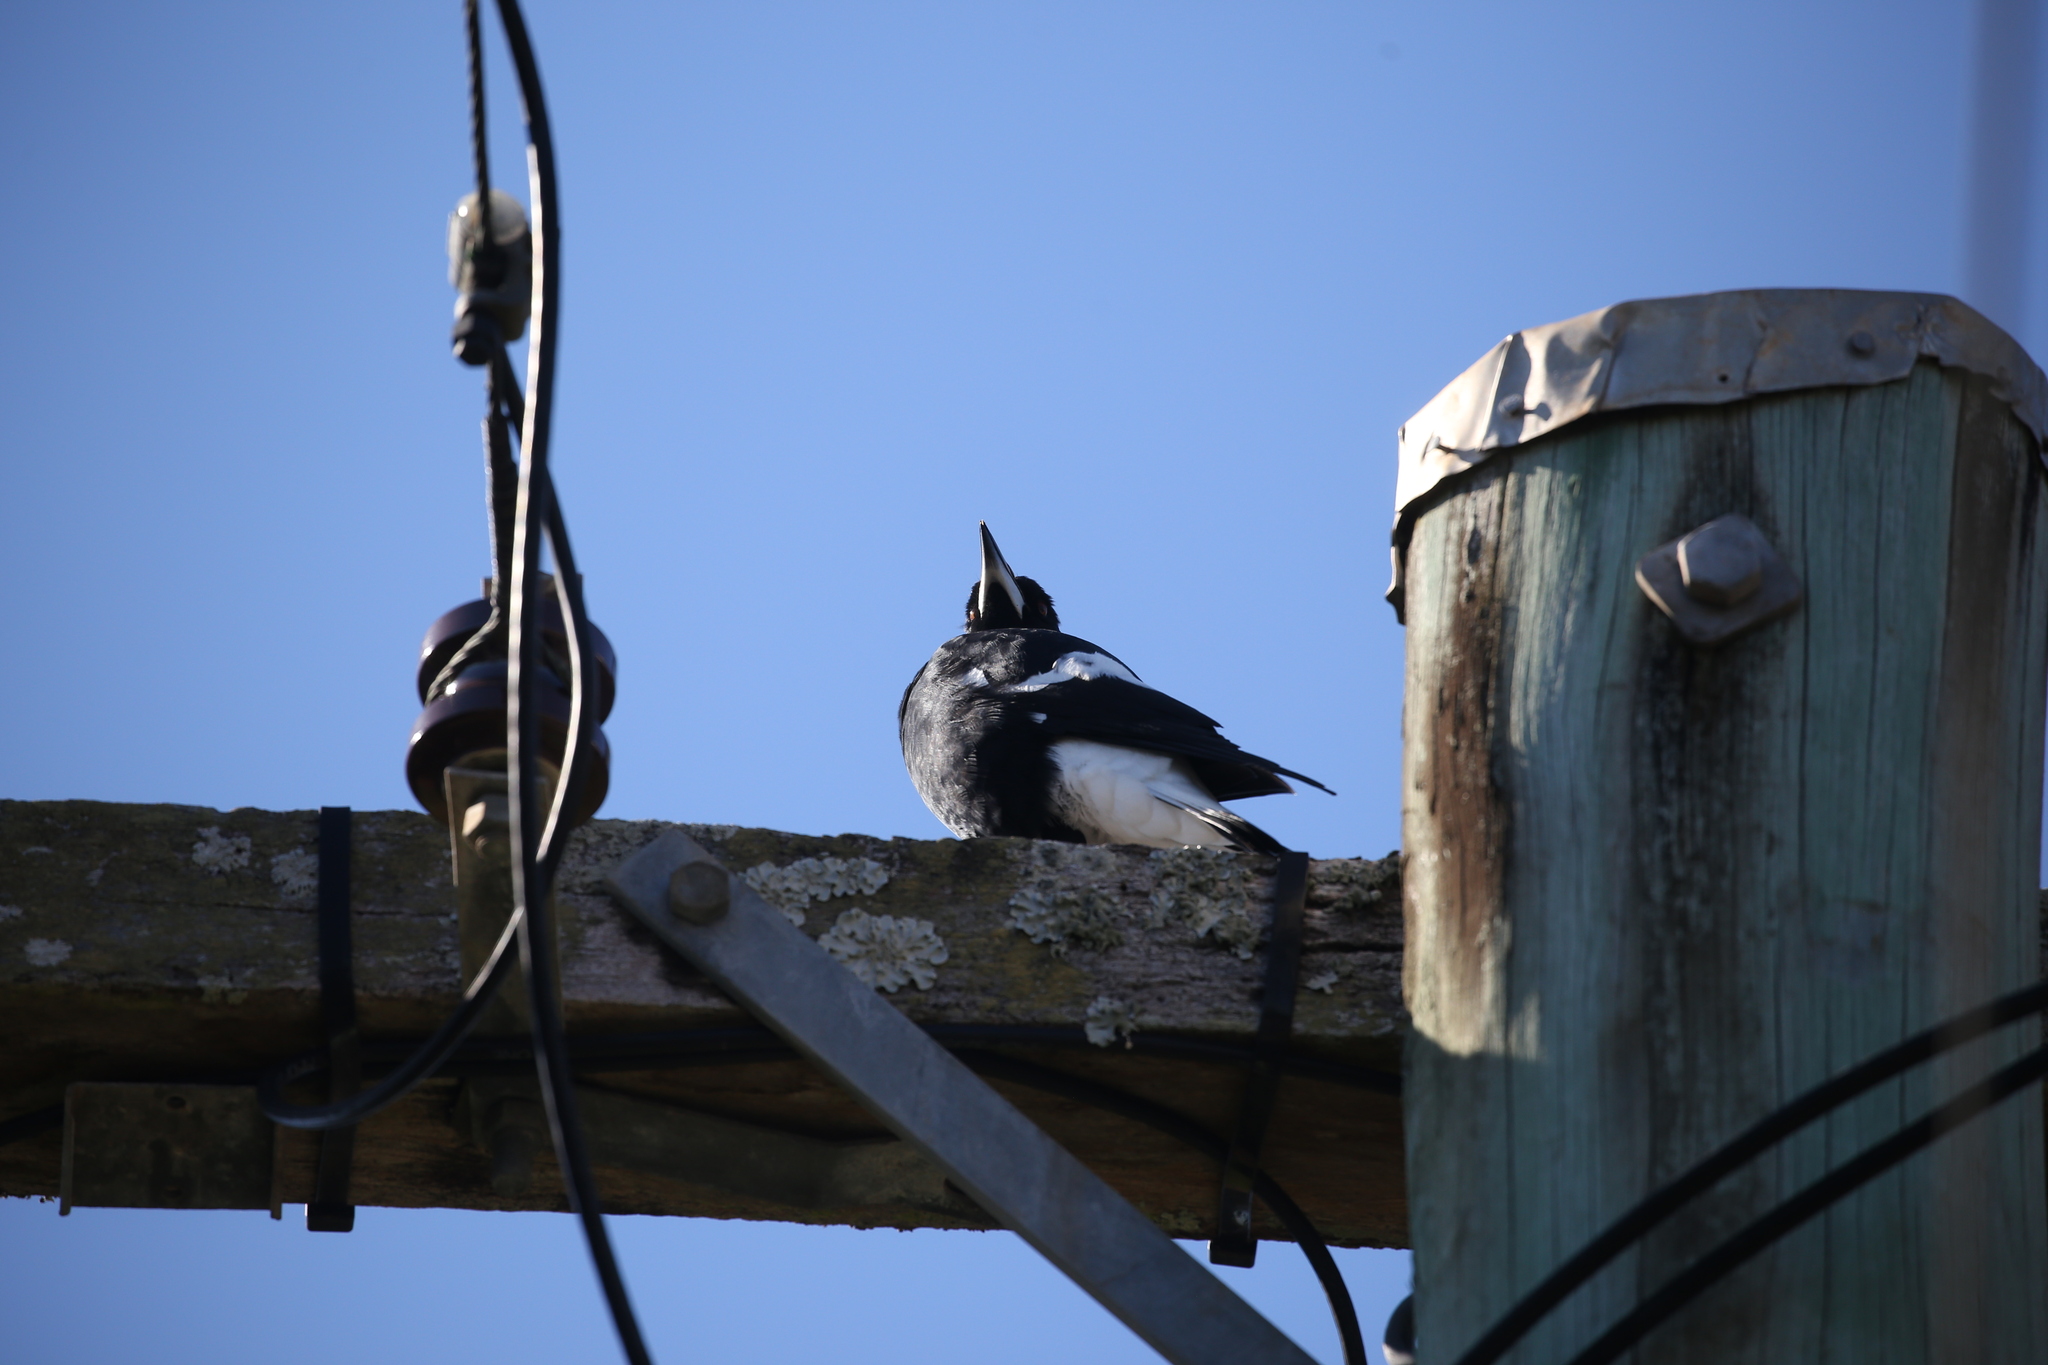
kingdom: Animalia
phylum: Chordata
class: Aves
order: Passeriformes
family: Cracticidae
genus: Gymnorhina
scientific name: Gymnorhina tibicen
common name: Australian magpie
